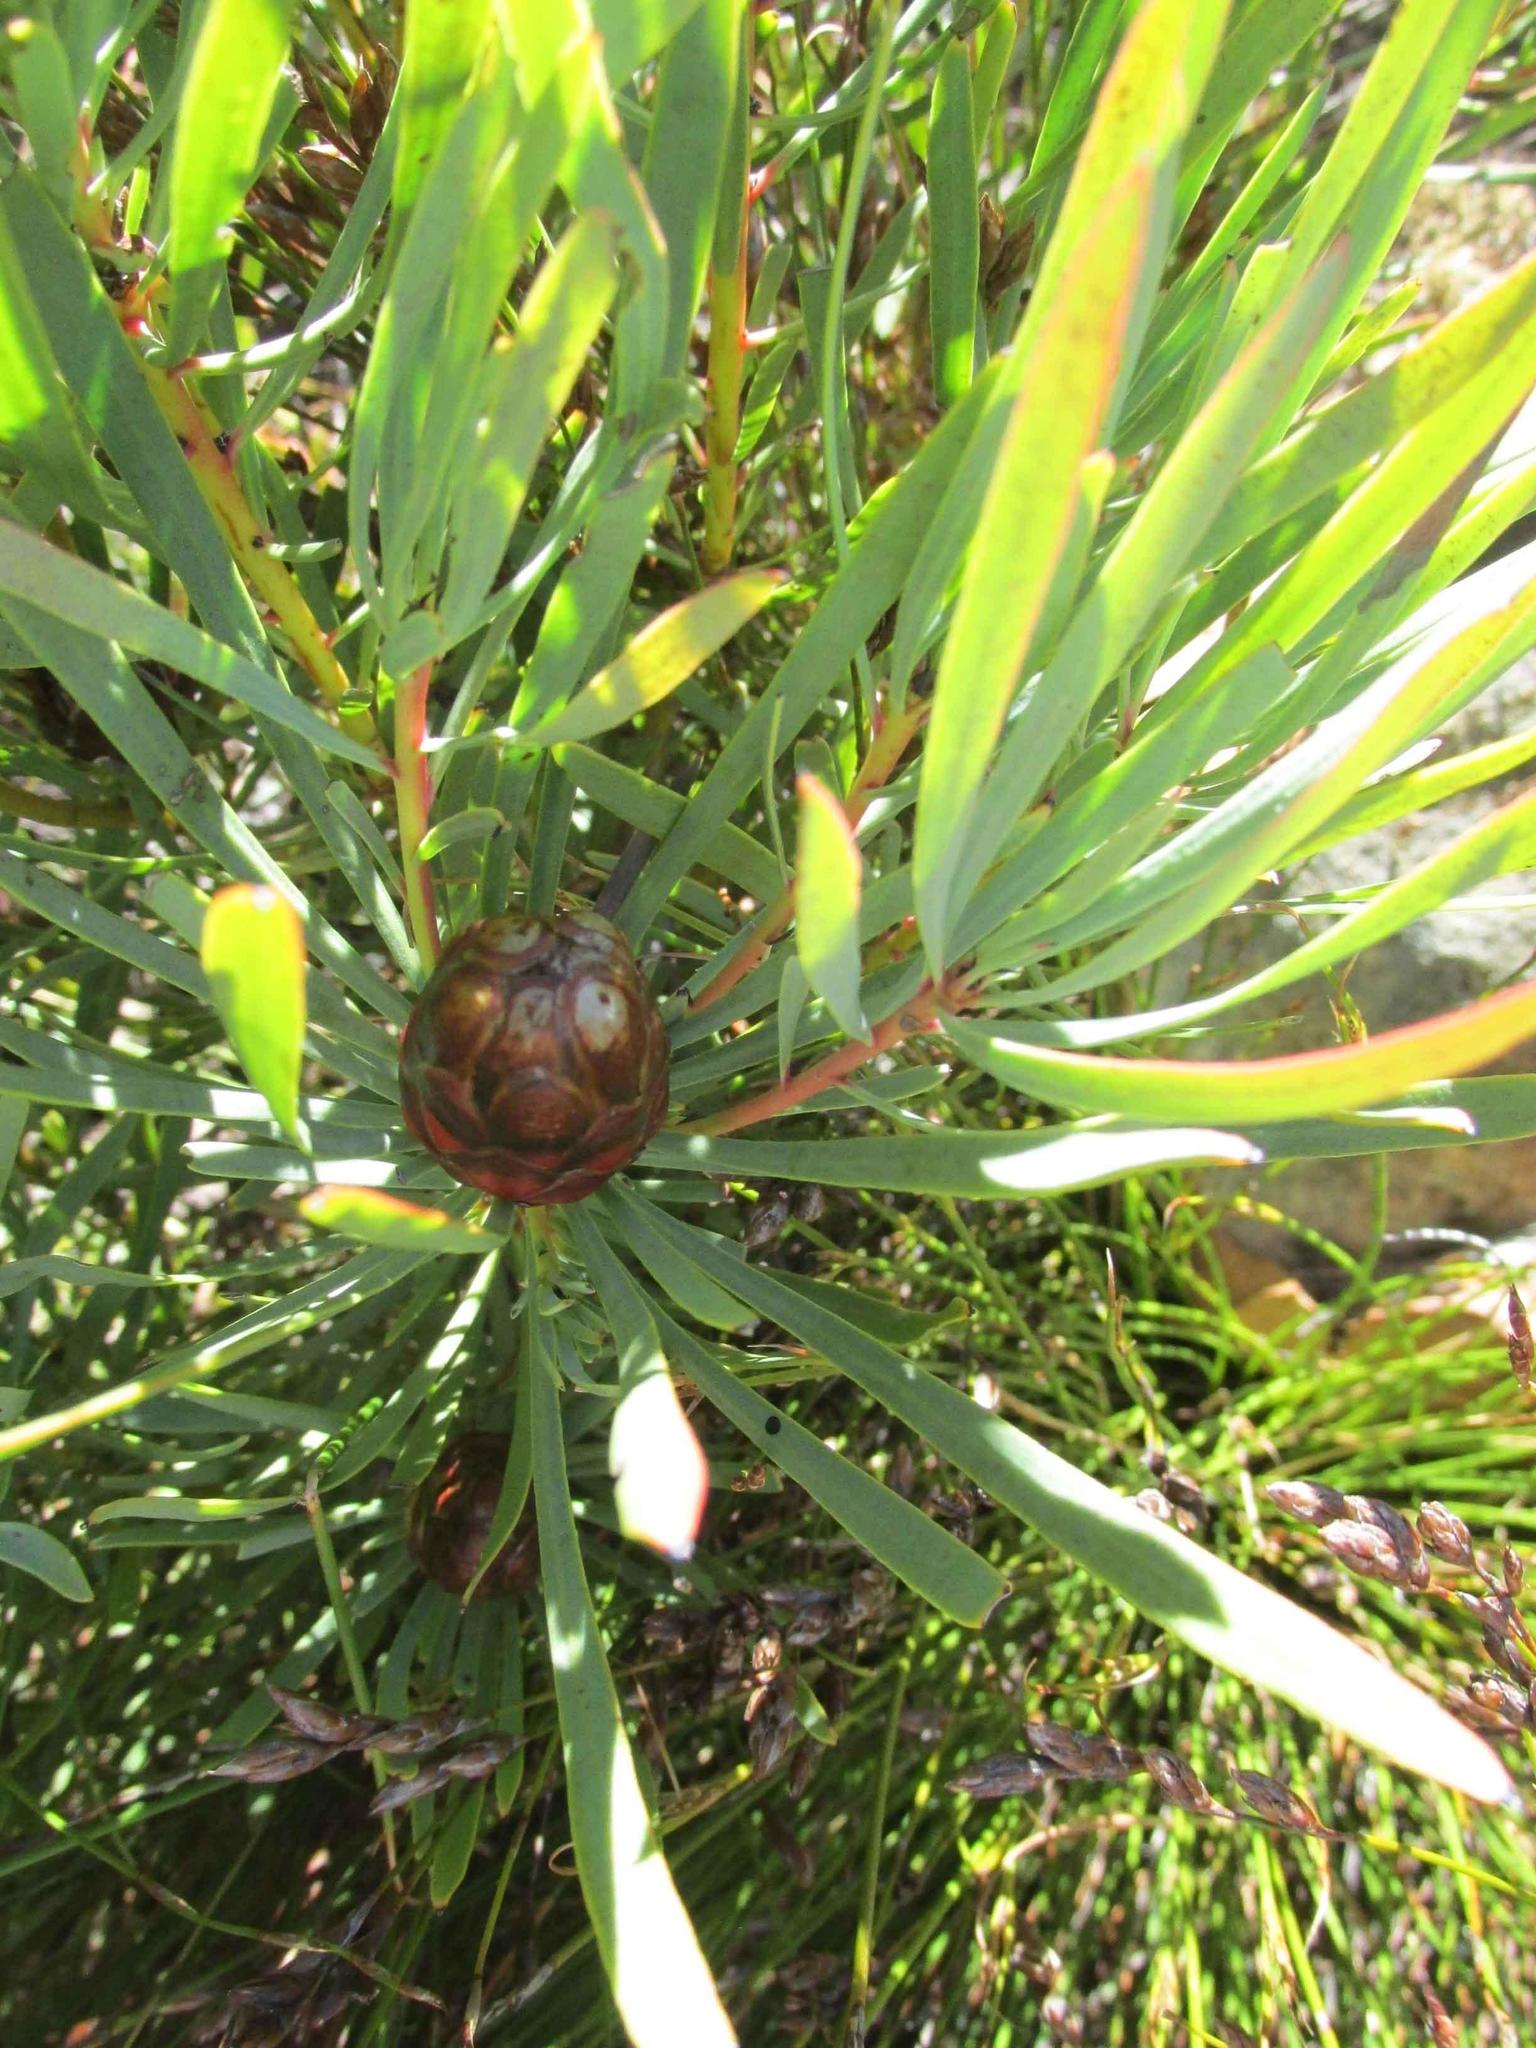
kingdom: Plantae
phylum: Tracheophyta
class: Magnoliopsida
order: Proteales
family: Proteaceae
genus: Protea
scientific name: Protea acuminata
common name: Black-rim sugarbush
